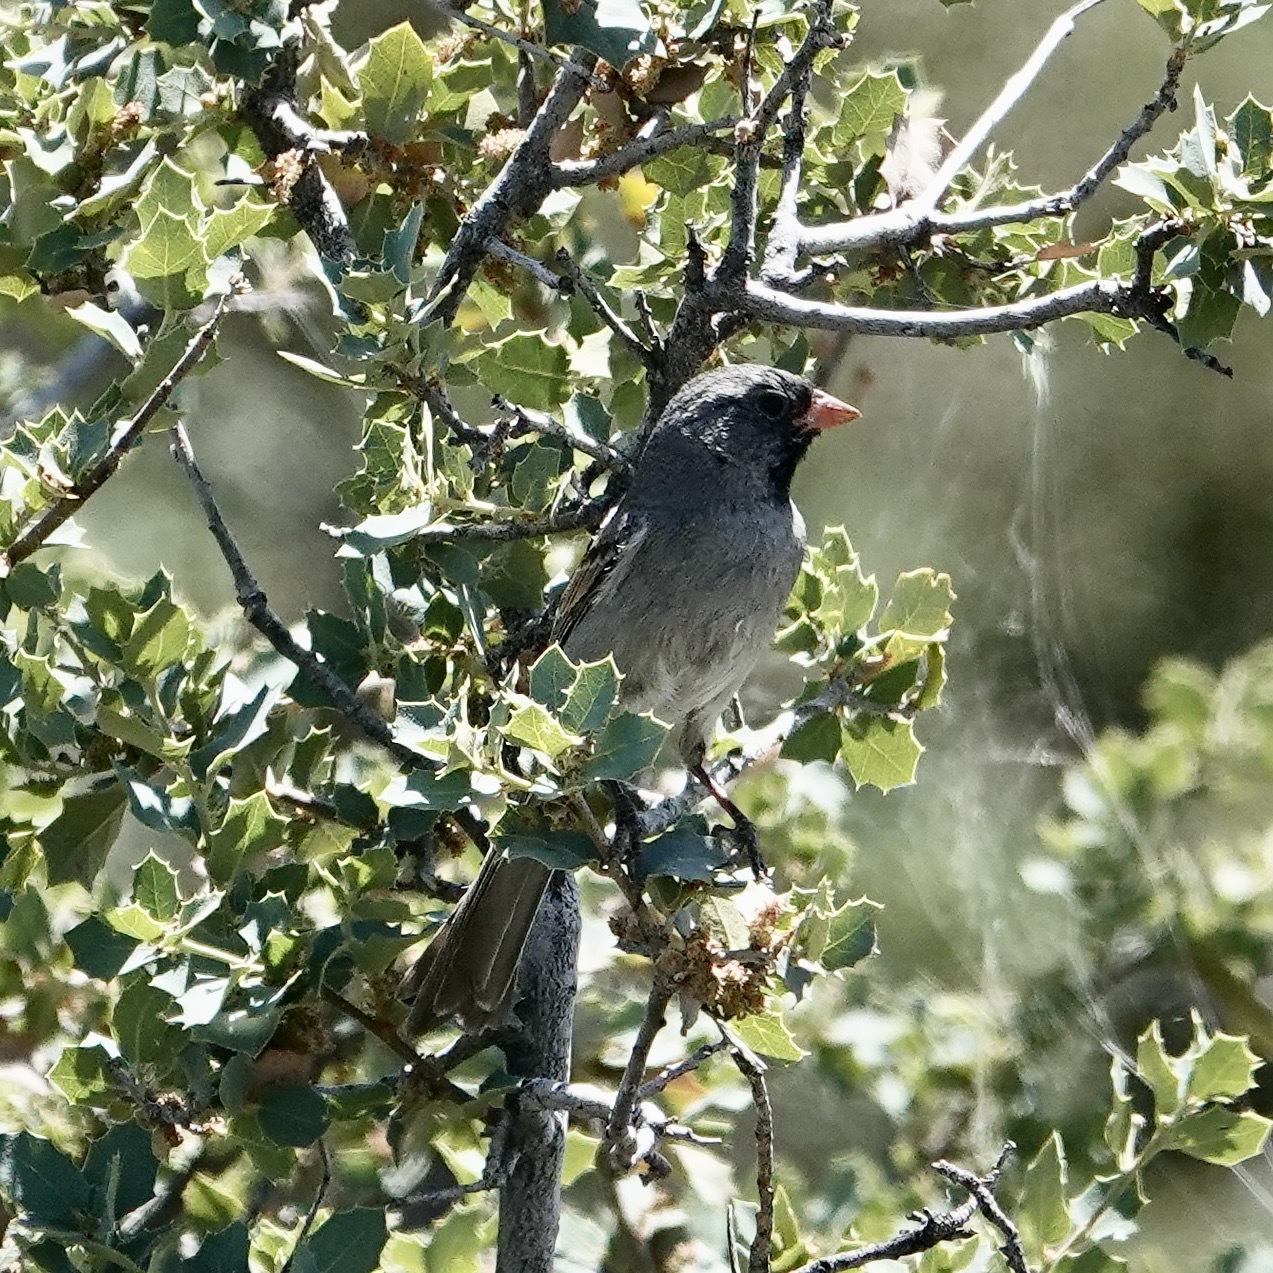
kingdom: Animalia
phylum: Chordata
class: Aves
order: Passeriformes
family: Passerellidae
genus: Spizella
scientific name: Spizella atrogularis
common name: Black-chinned sparrow
